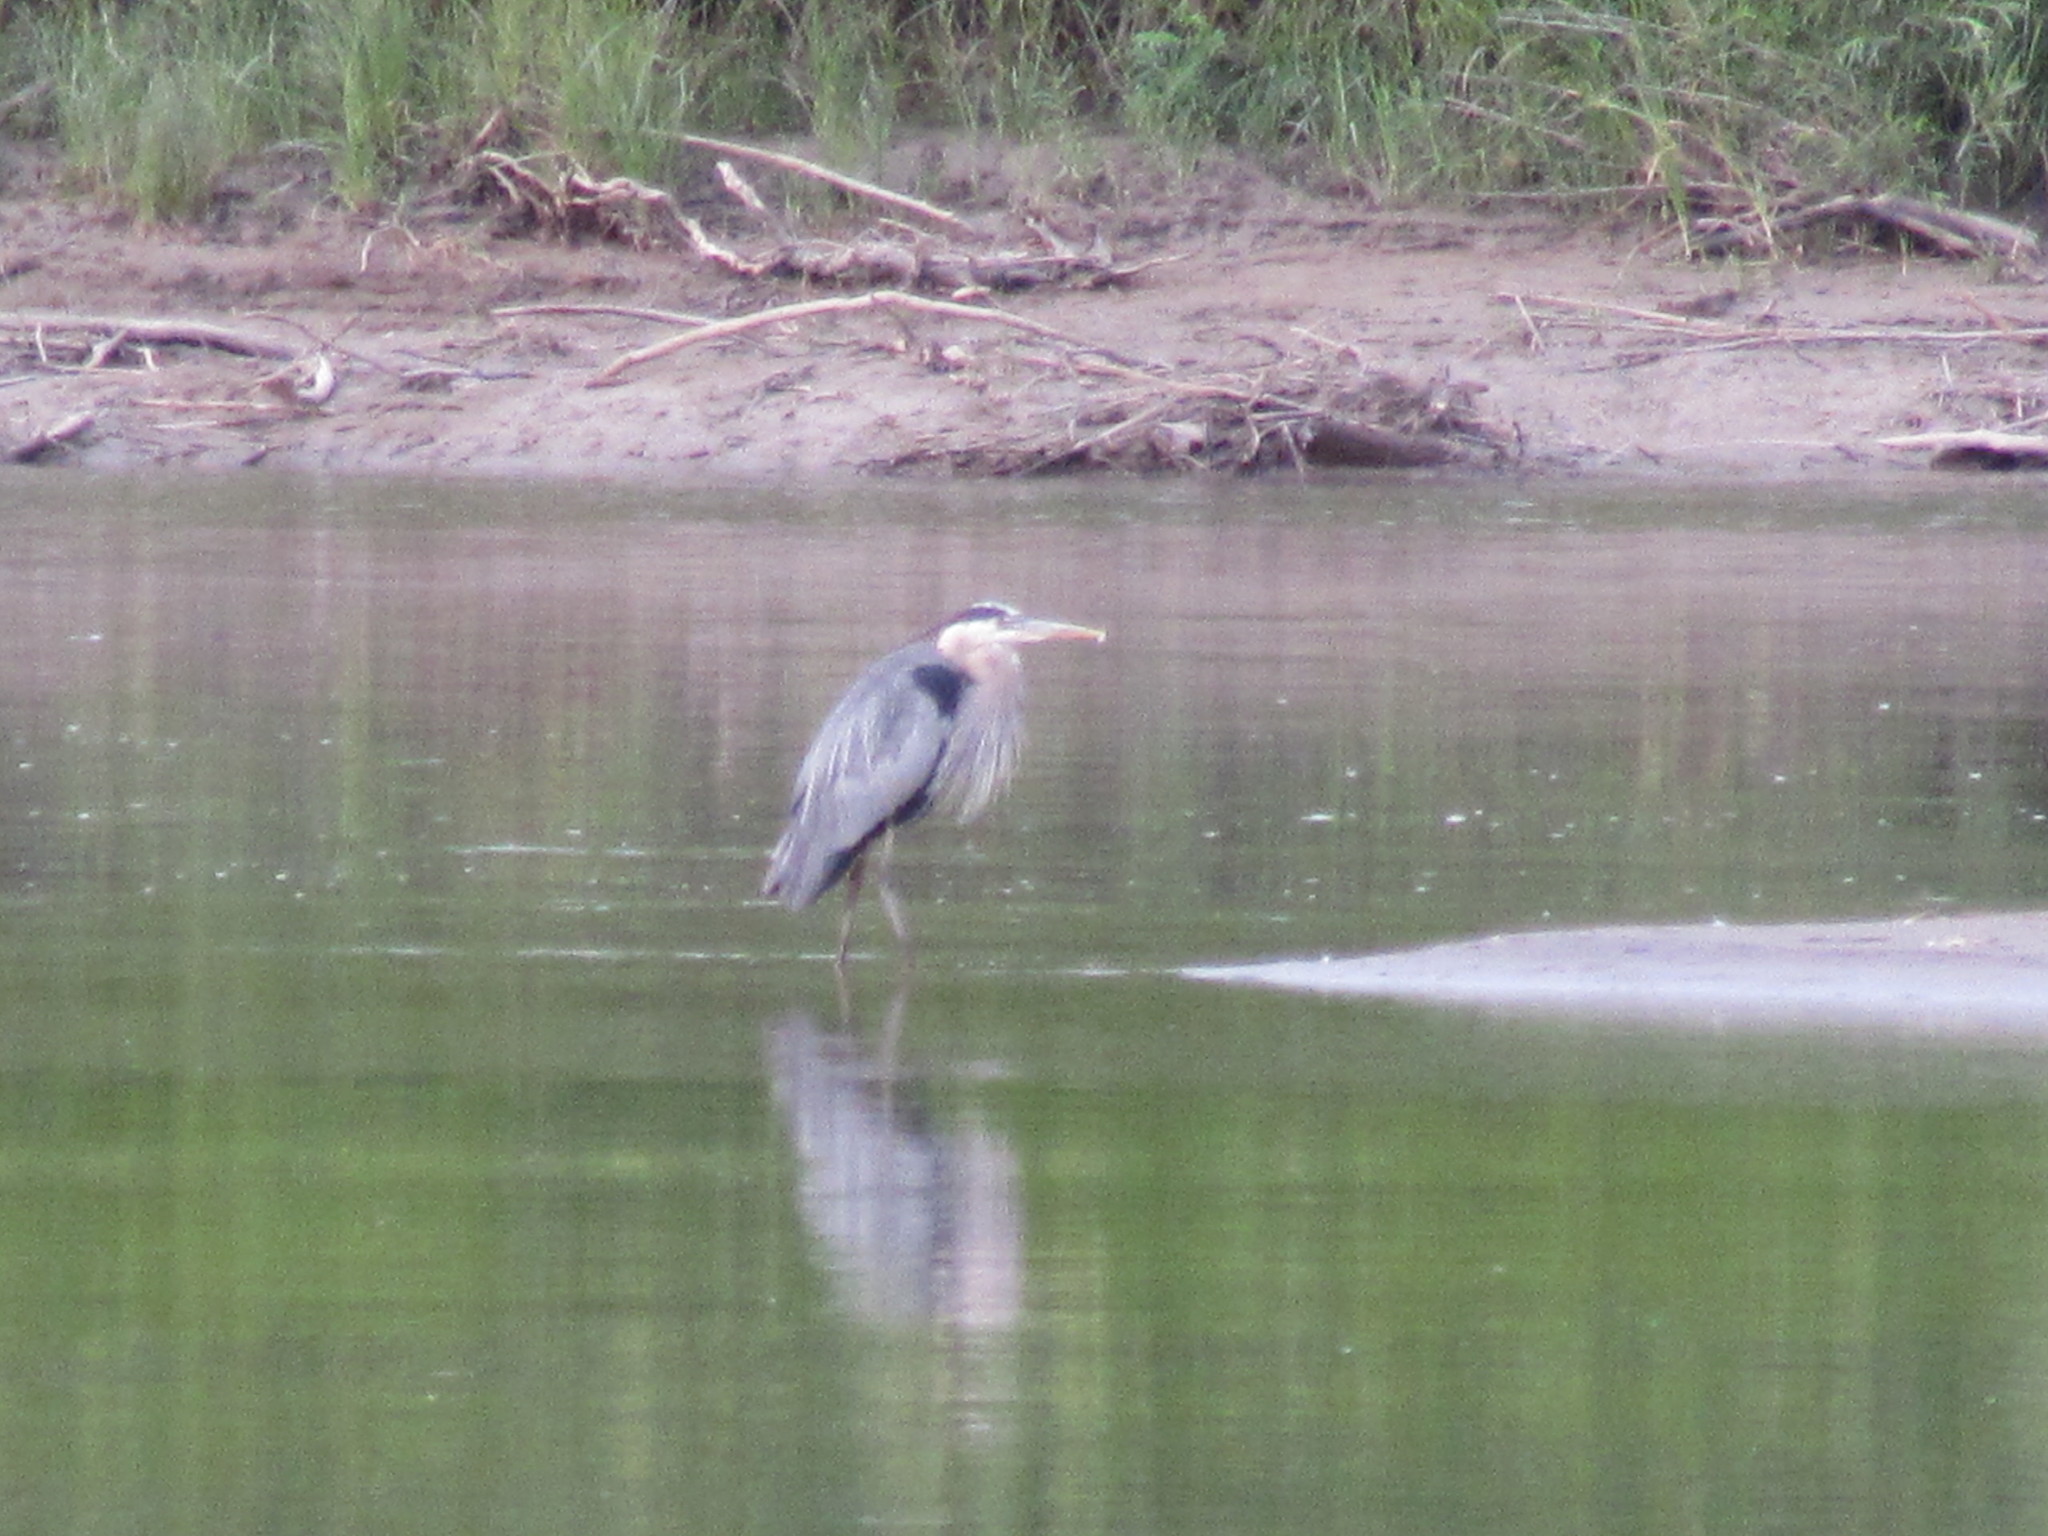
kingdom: Animalia
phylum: Chordata
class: Aves
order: Pelecaniformes
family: Ardeidae
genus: Ardea
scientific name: Ardea herodias
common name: Great blue heron
